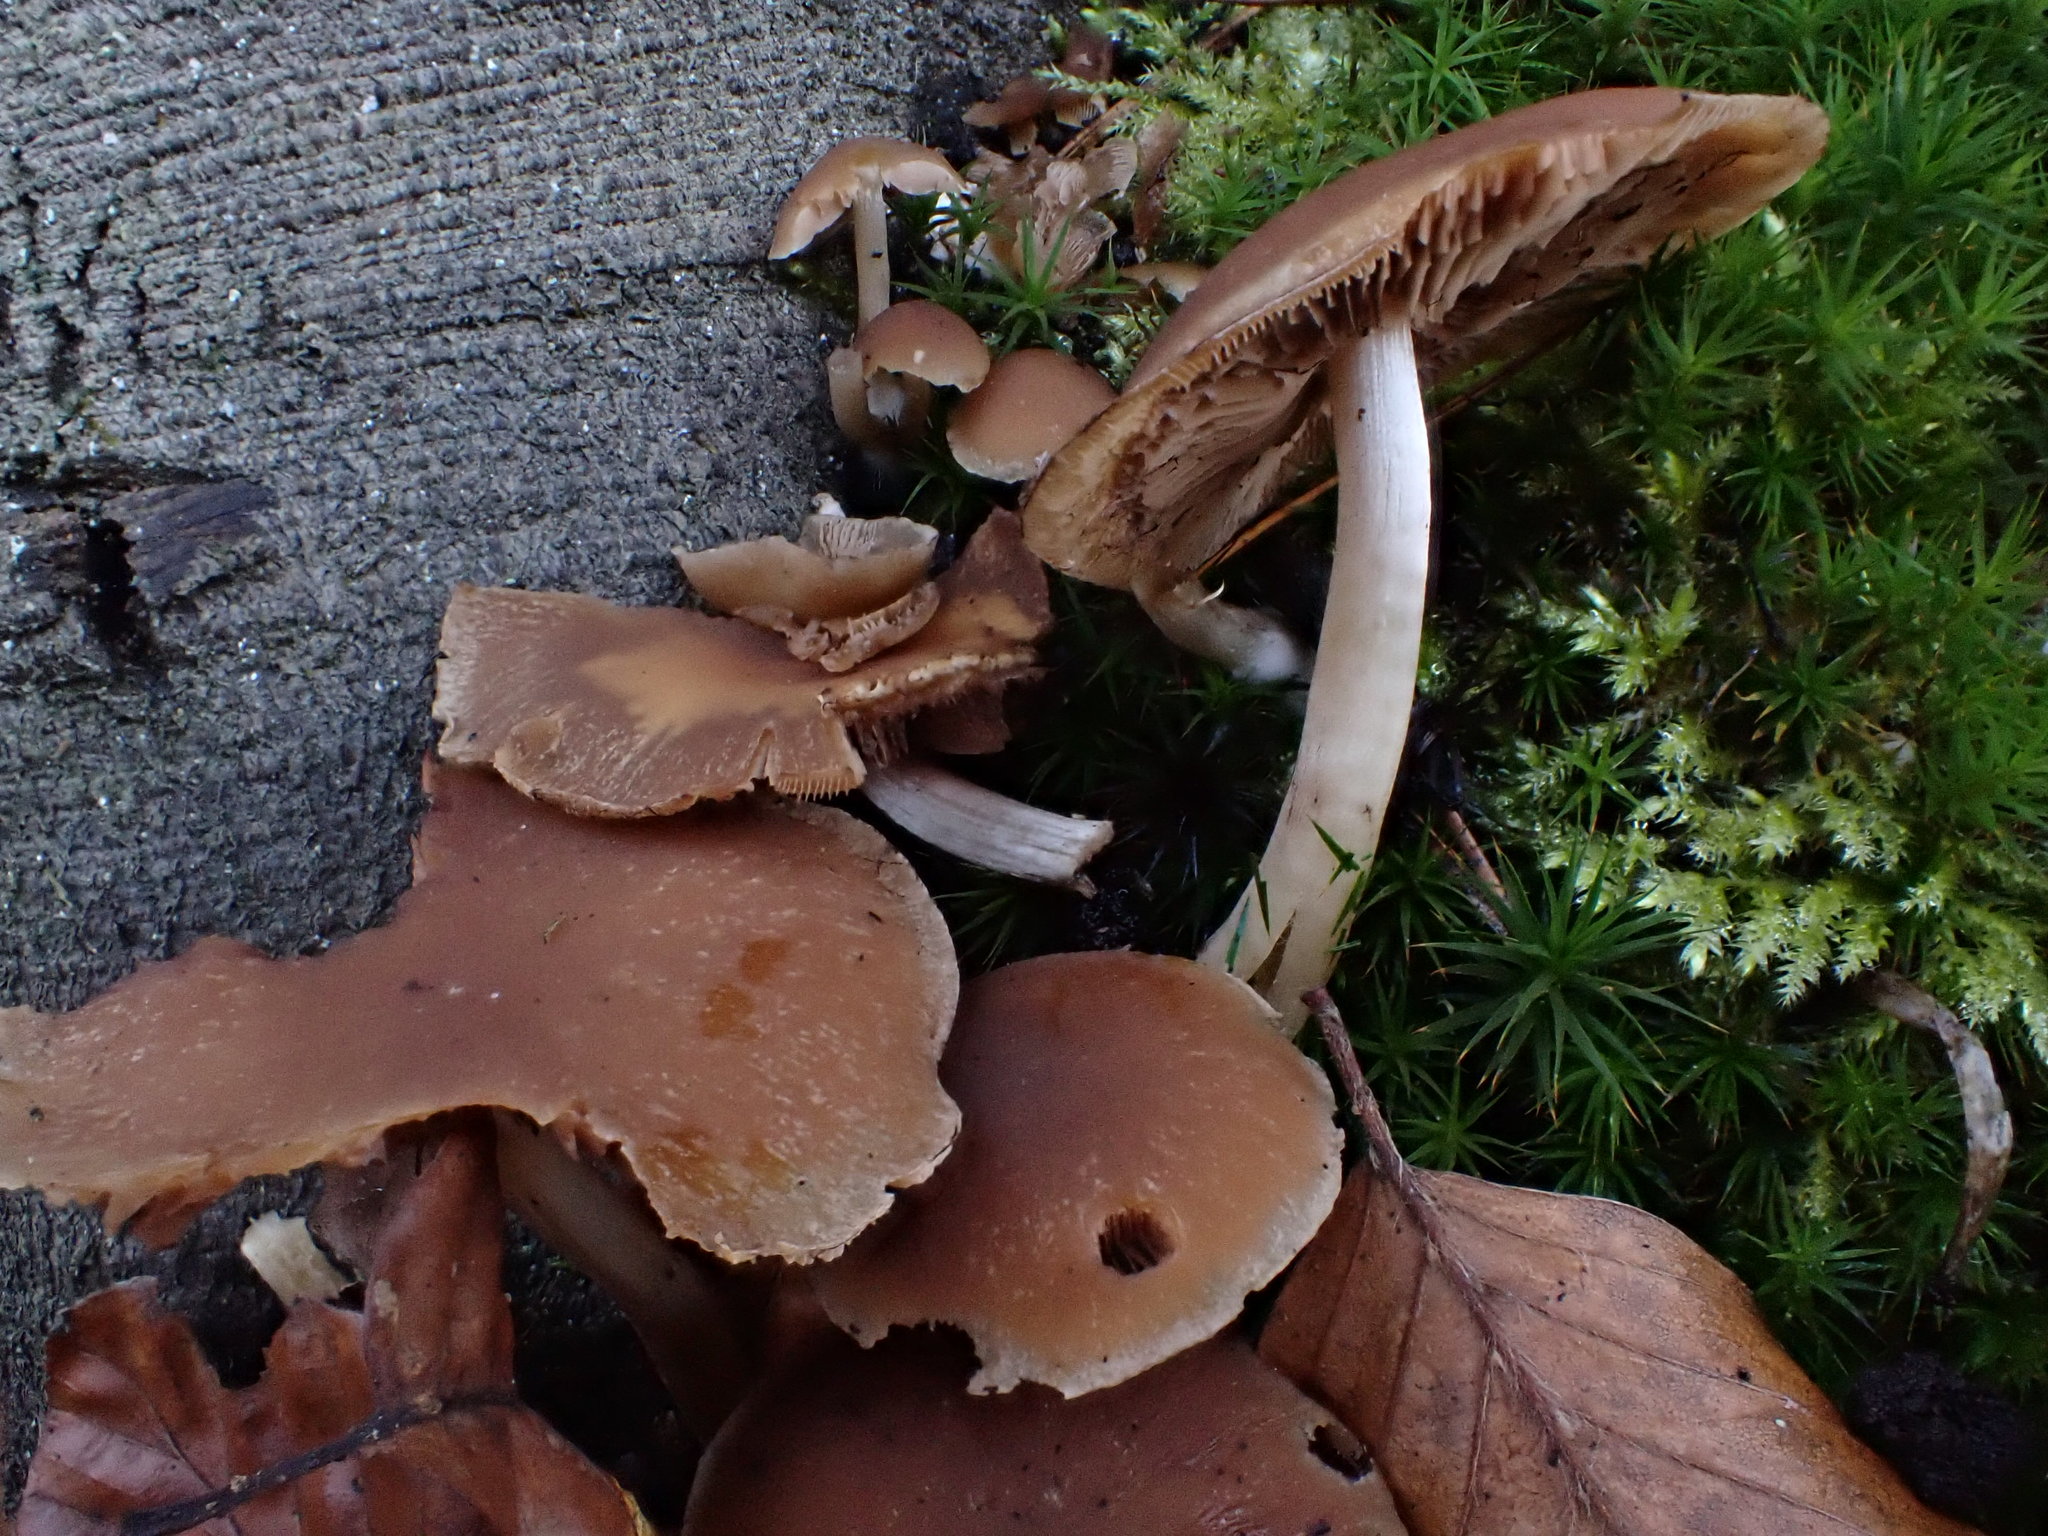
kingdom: Fungi
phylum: Basidiomycota
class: Agaricomycetes
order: Agaricales
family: Psathyrellaceae
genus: Psathyrella
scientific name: Psathyrella piluliformis
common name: Common stump brittlestem
